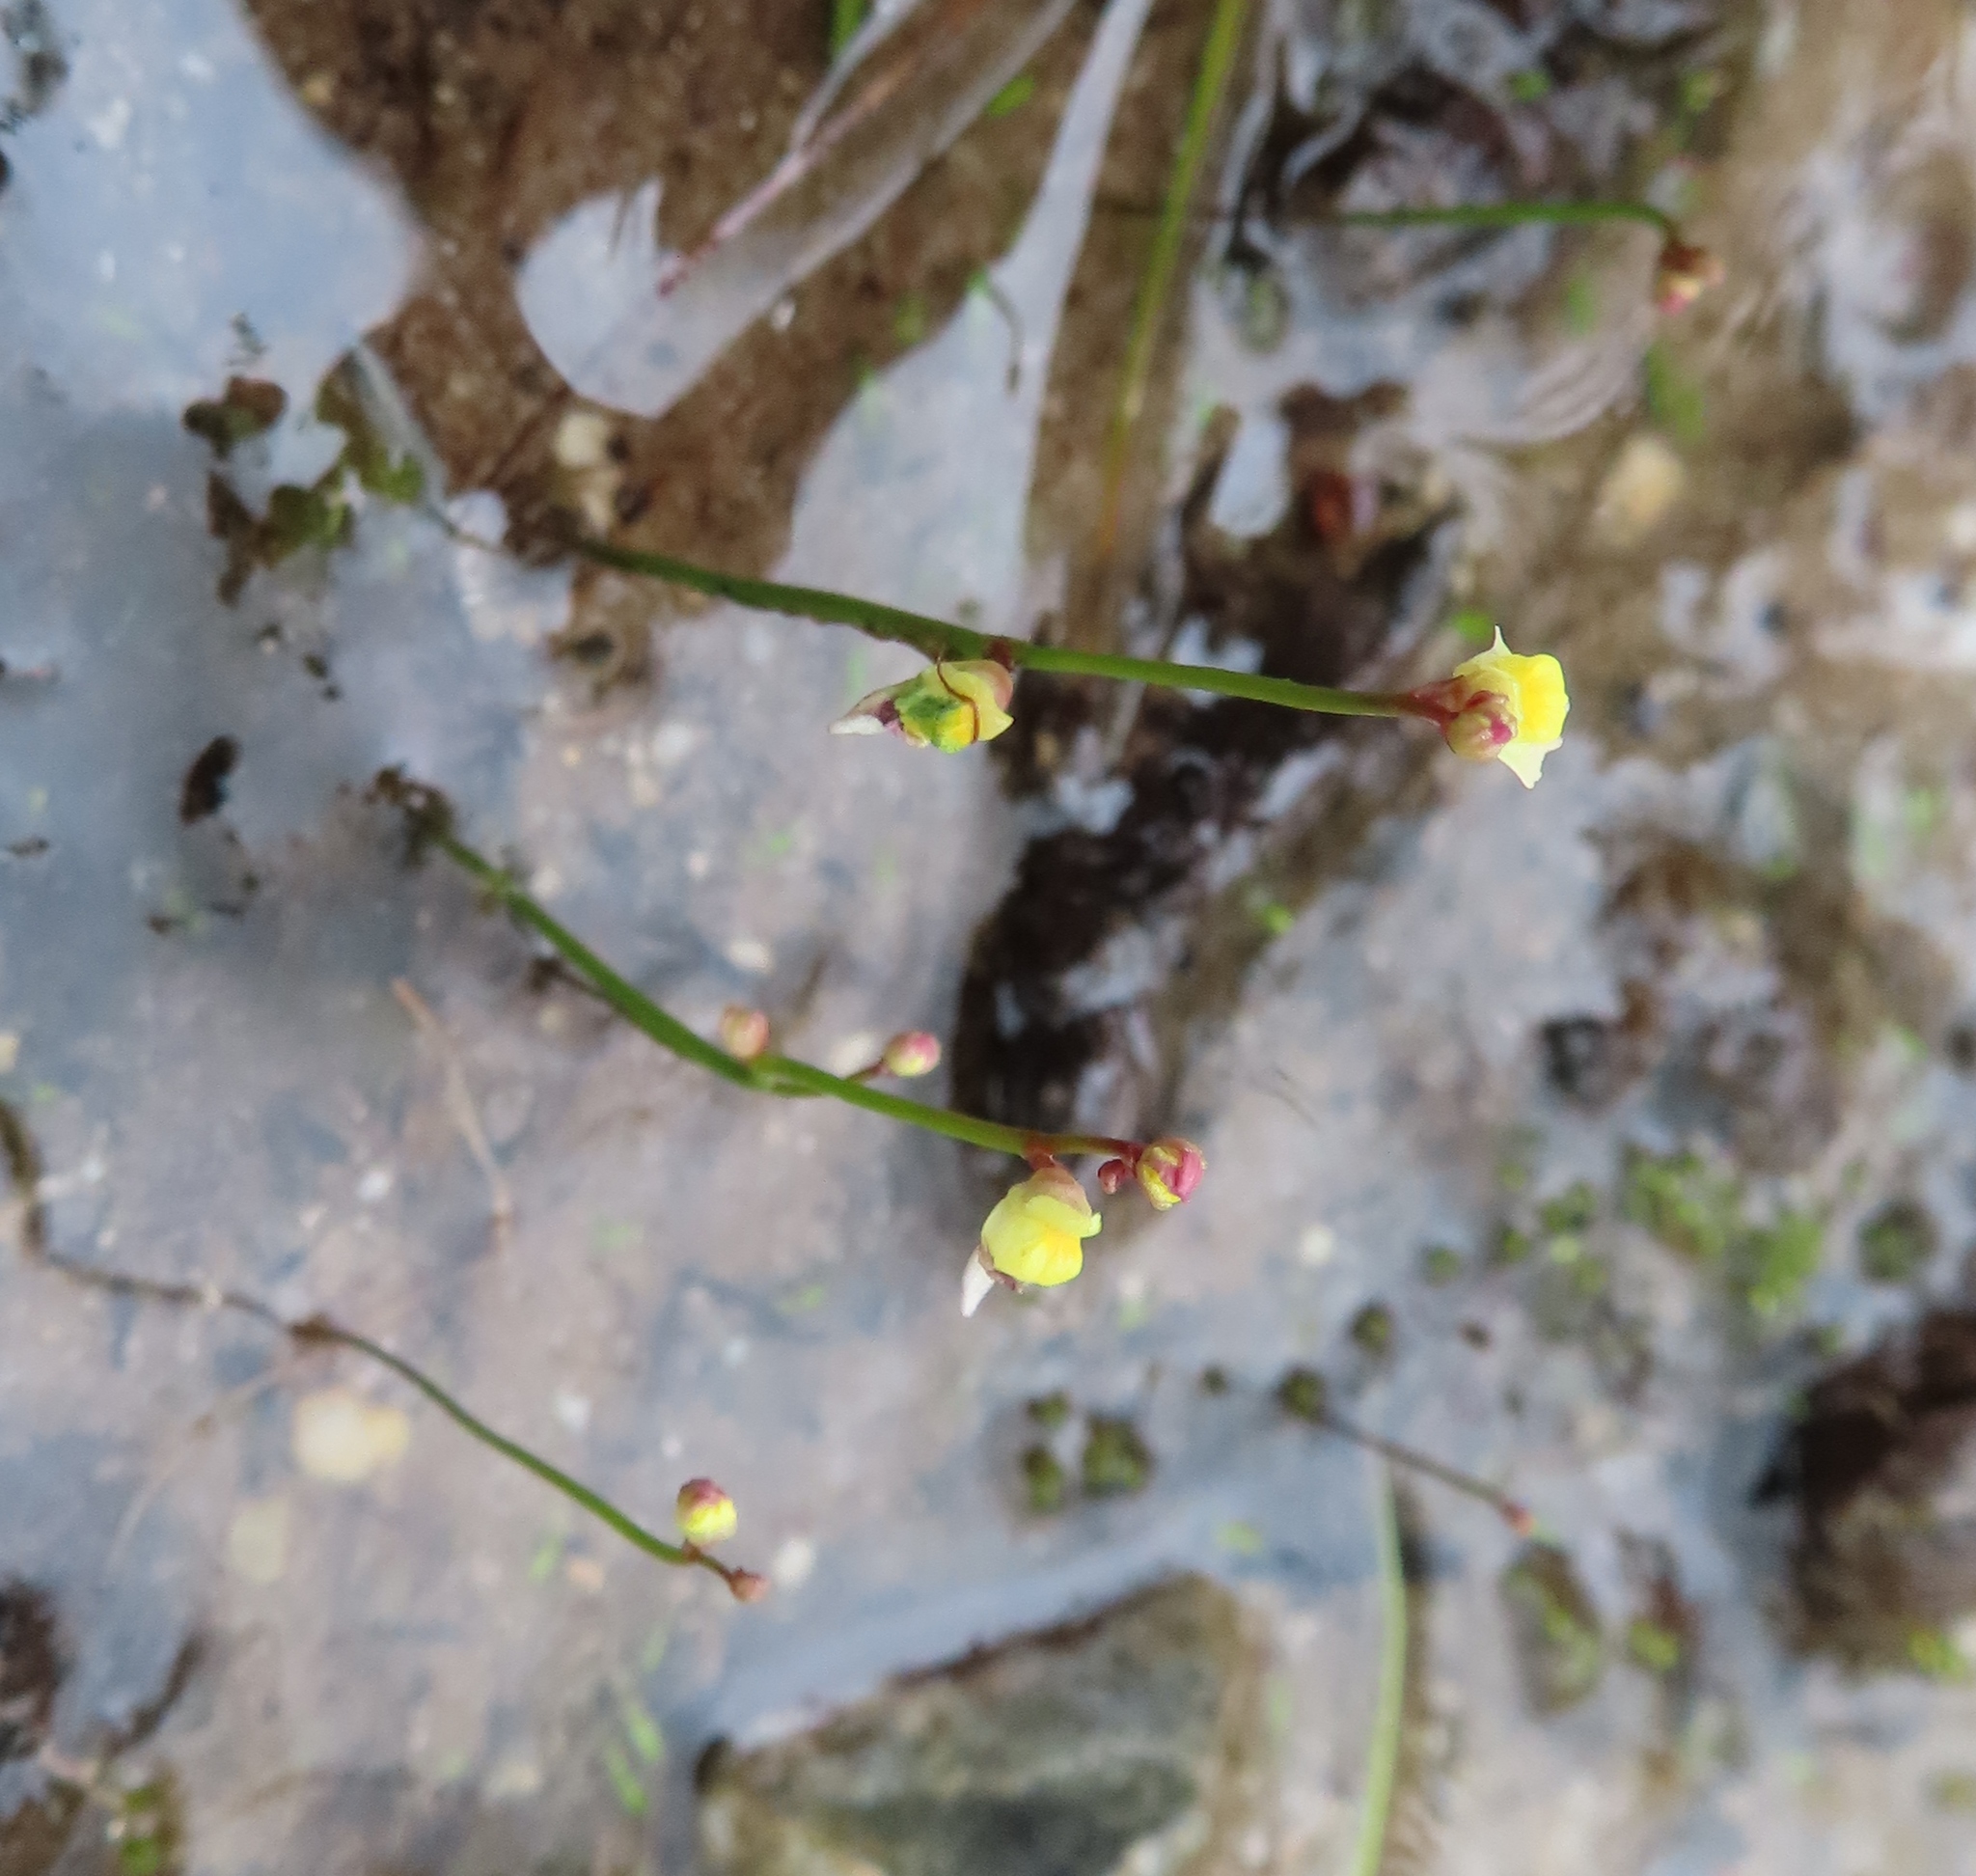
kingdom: Plantae
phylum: Tracheophyta
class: Magnoliopsida
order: Lamiales
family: Lentibulariaceae
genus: Utricularia
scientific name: Utricularia bisquamata
